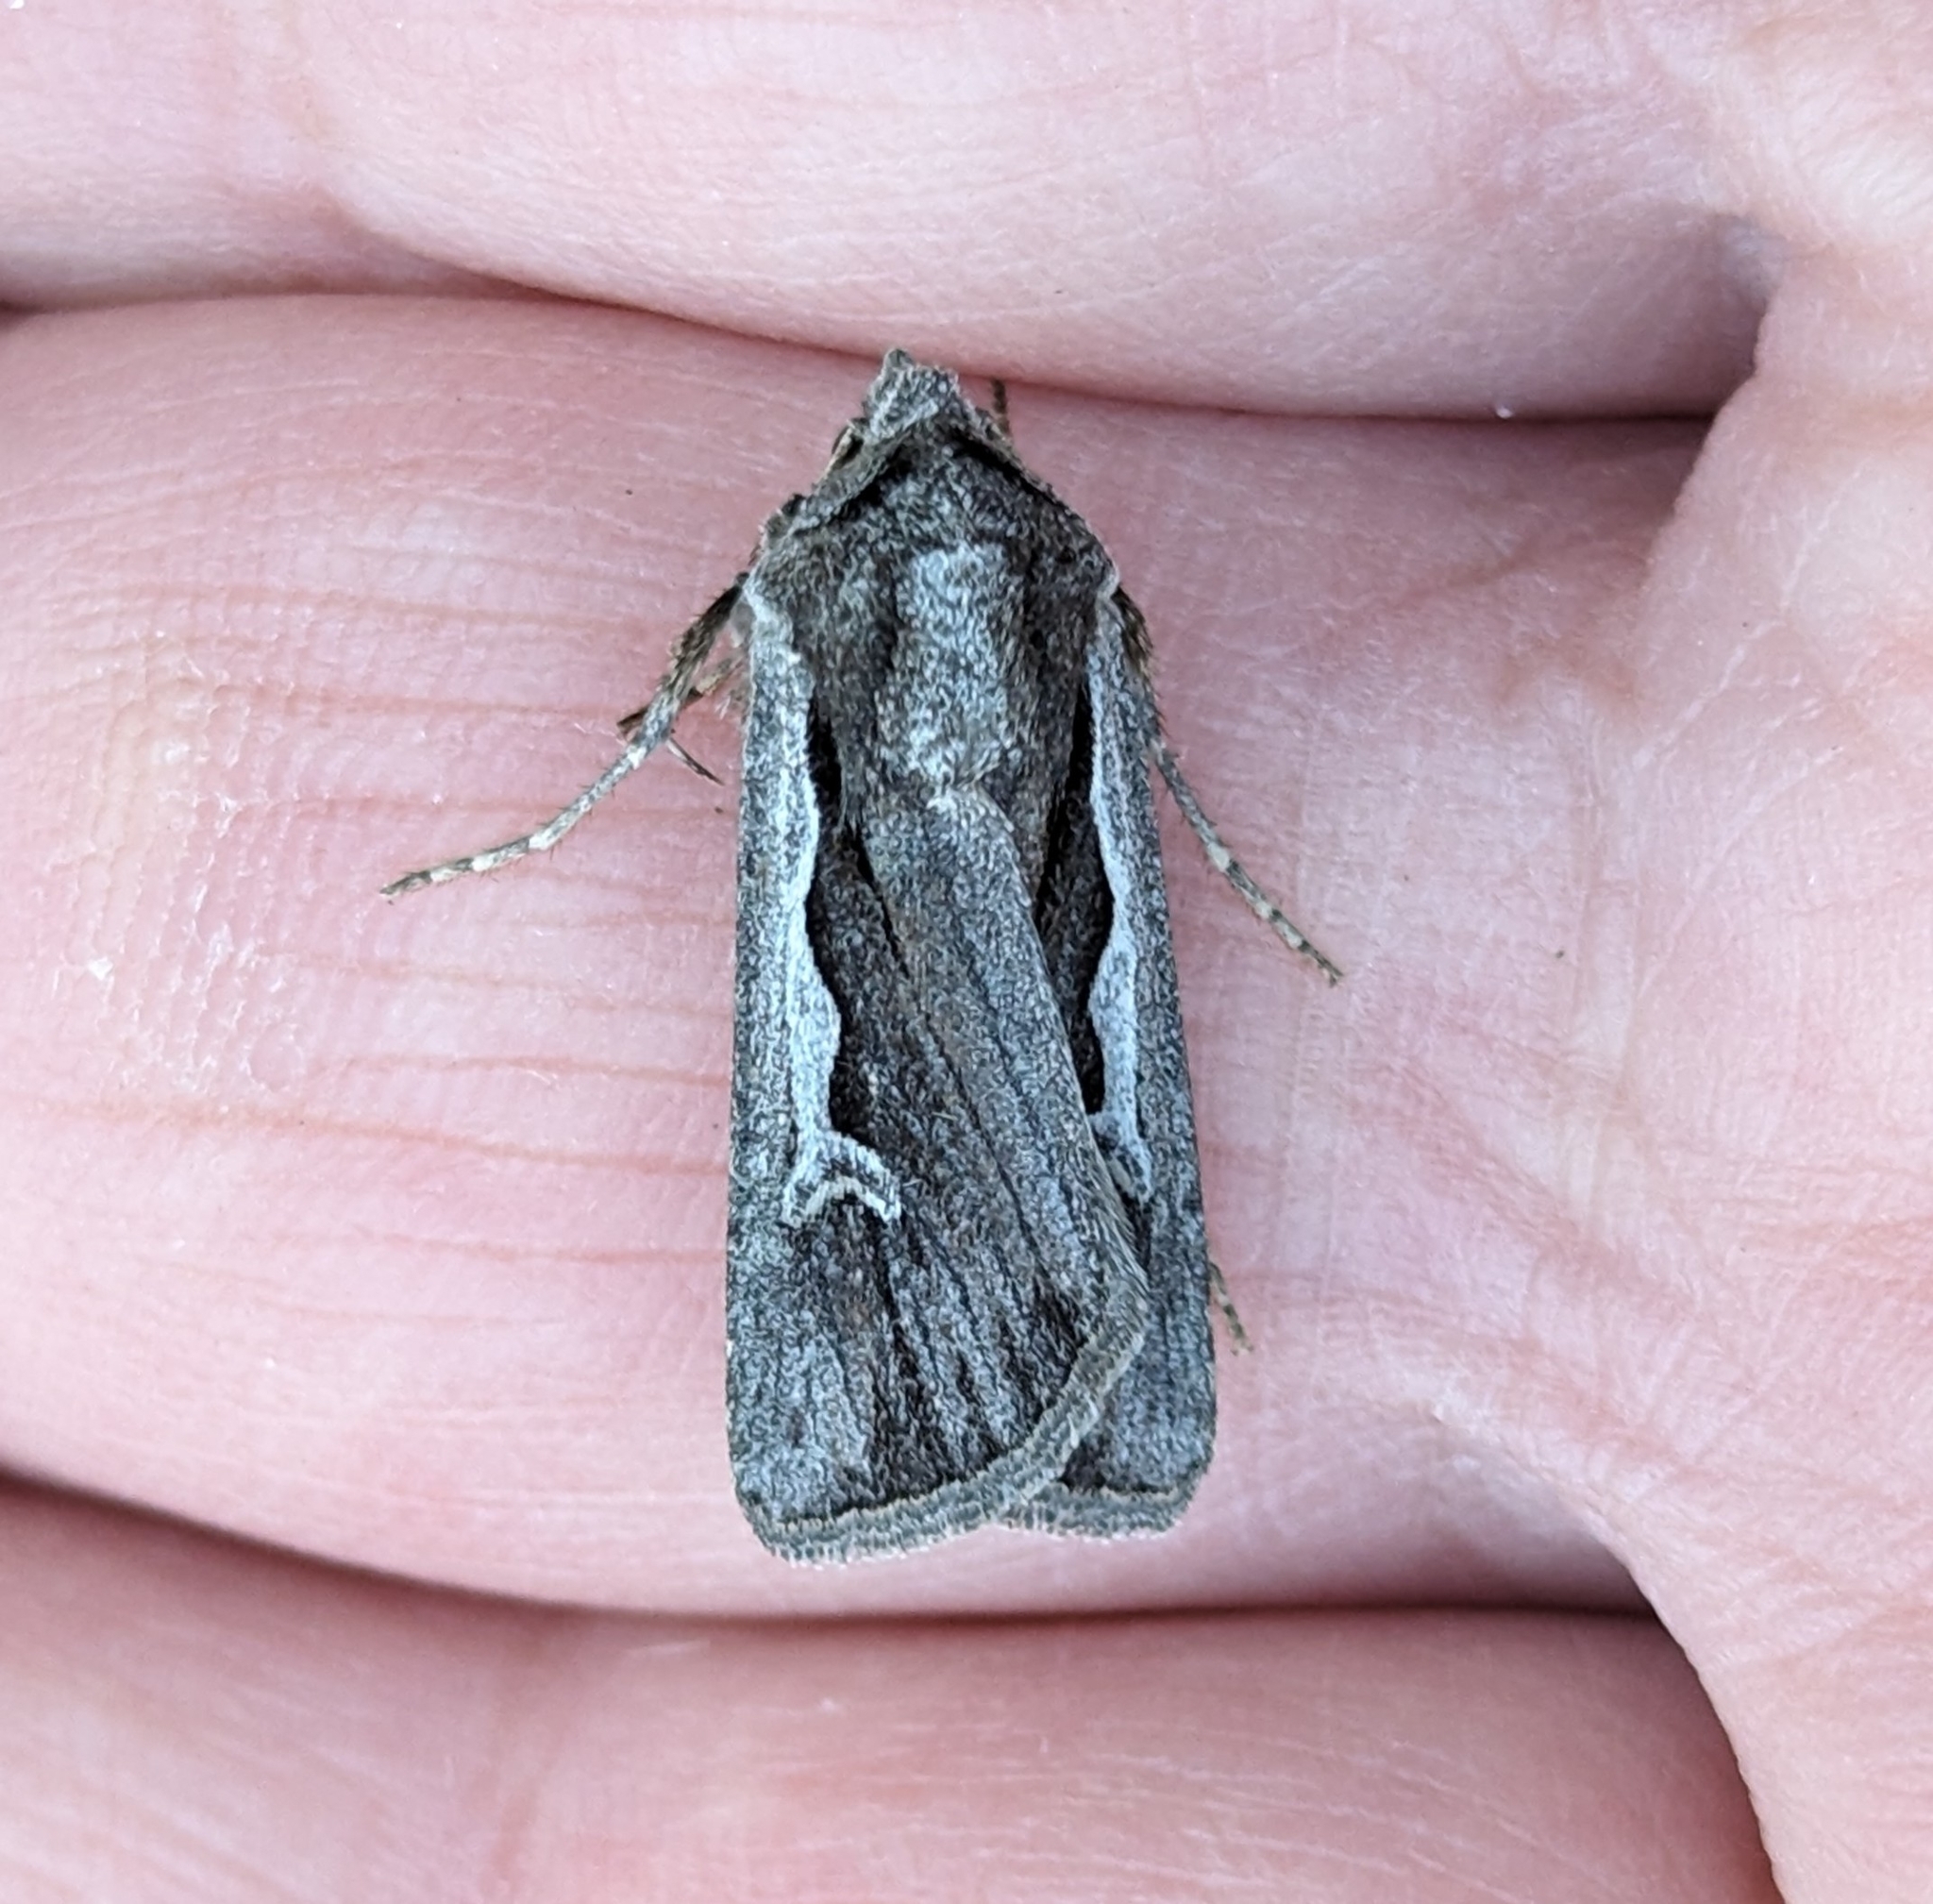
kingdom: Animalia
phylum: Arthropoda
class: Insecta
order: Lepidoptera
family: Noctuidae
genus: Euxoa
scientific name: Euxoa hollemani
